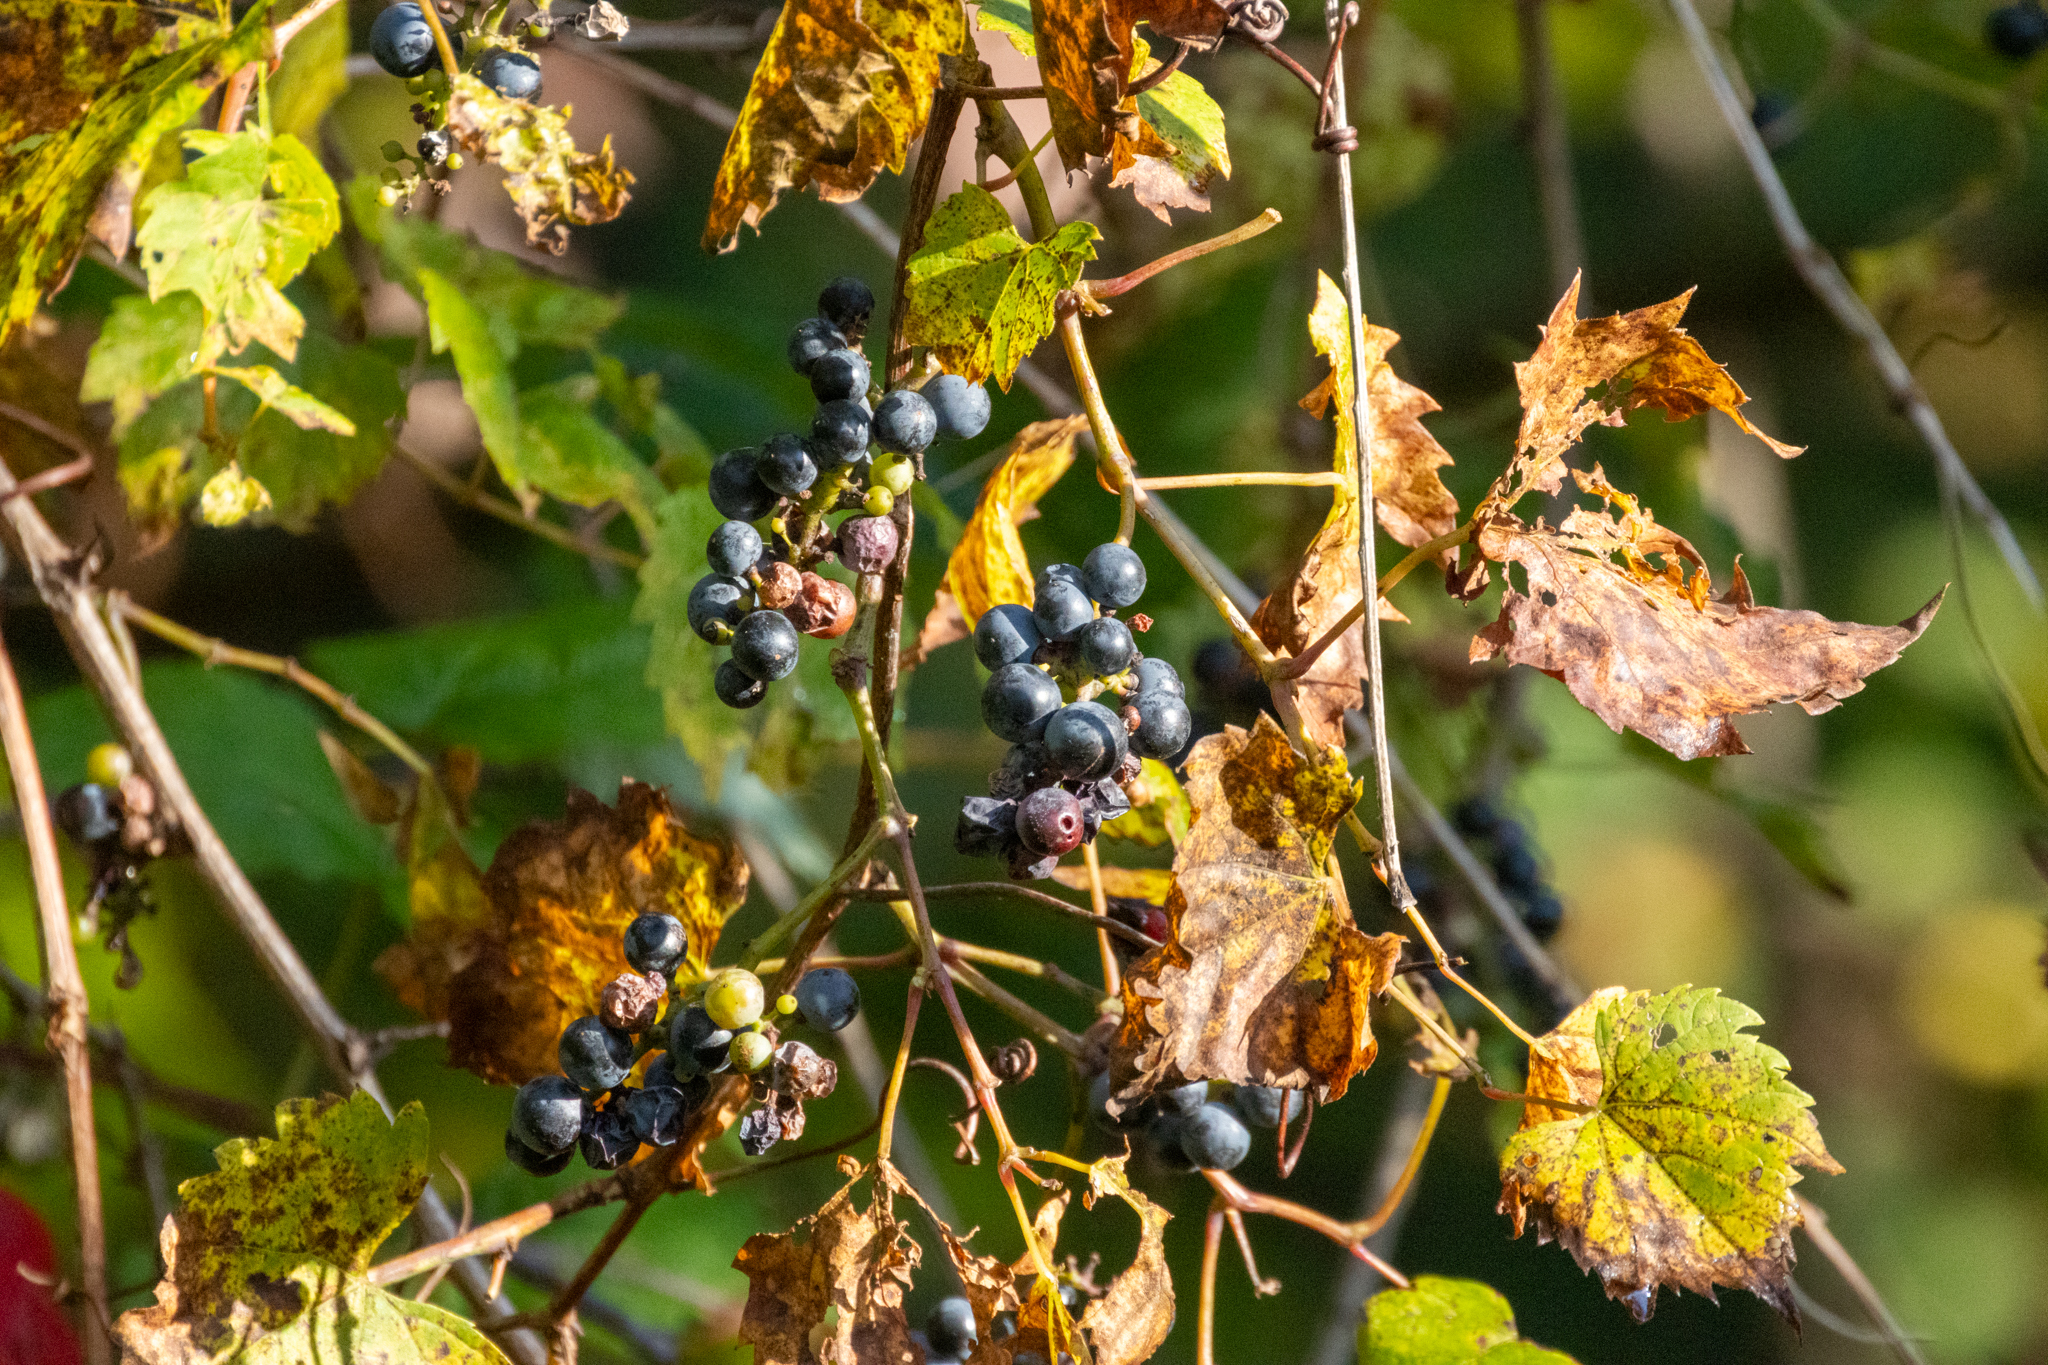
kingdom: Plantae
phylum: Tracheophyta
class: Magnoliopsida
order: Vitales
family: Vitaceae
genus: Vitis
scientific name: Vitis riparia
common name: Frost grape
